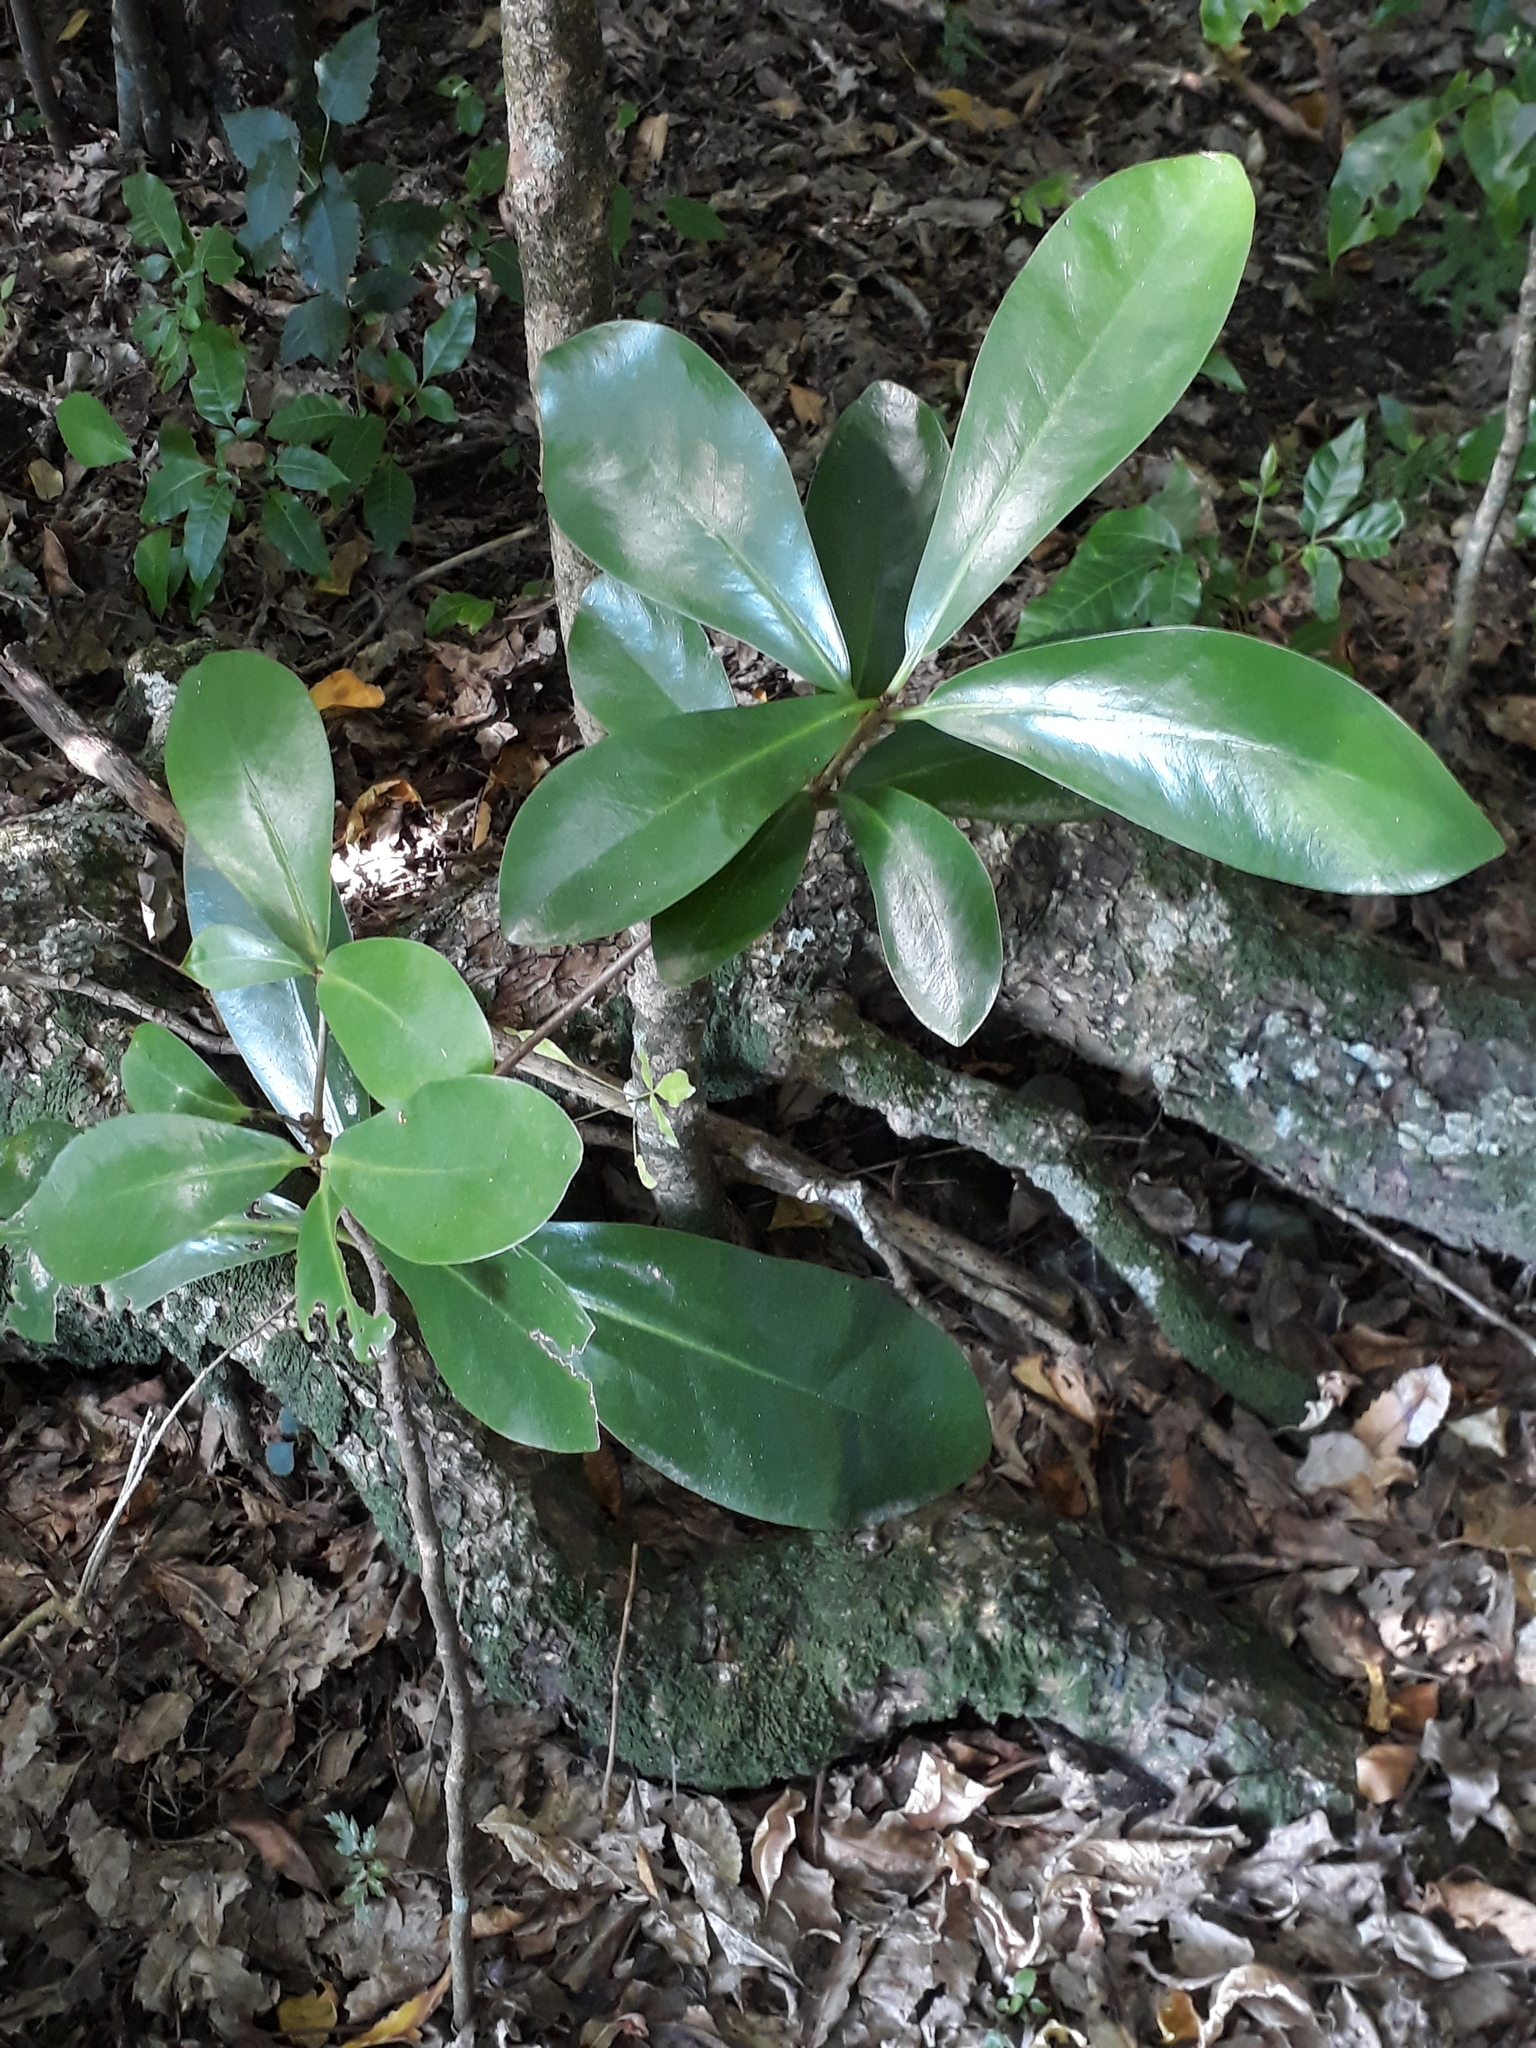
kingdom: Plantae
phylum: Tracheophyta
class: Magnoliopsida
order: Cucurbitales
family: Corynocarpaceae
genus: Corynocarpus
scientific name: Corynocarpus laevigatus
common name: New zealand laurel
